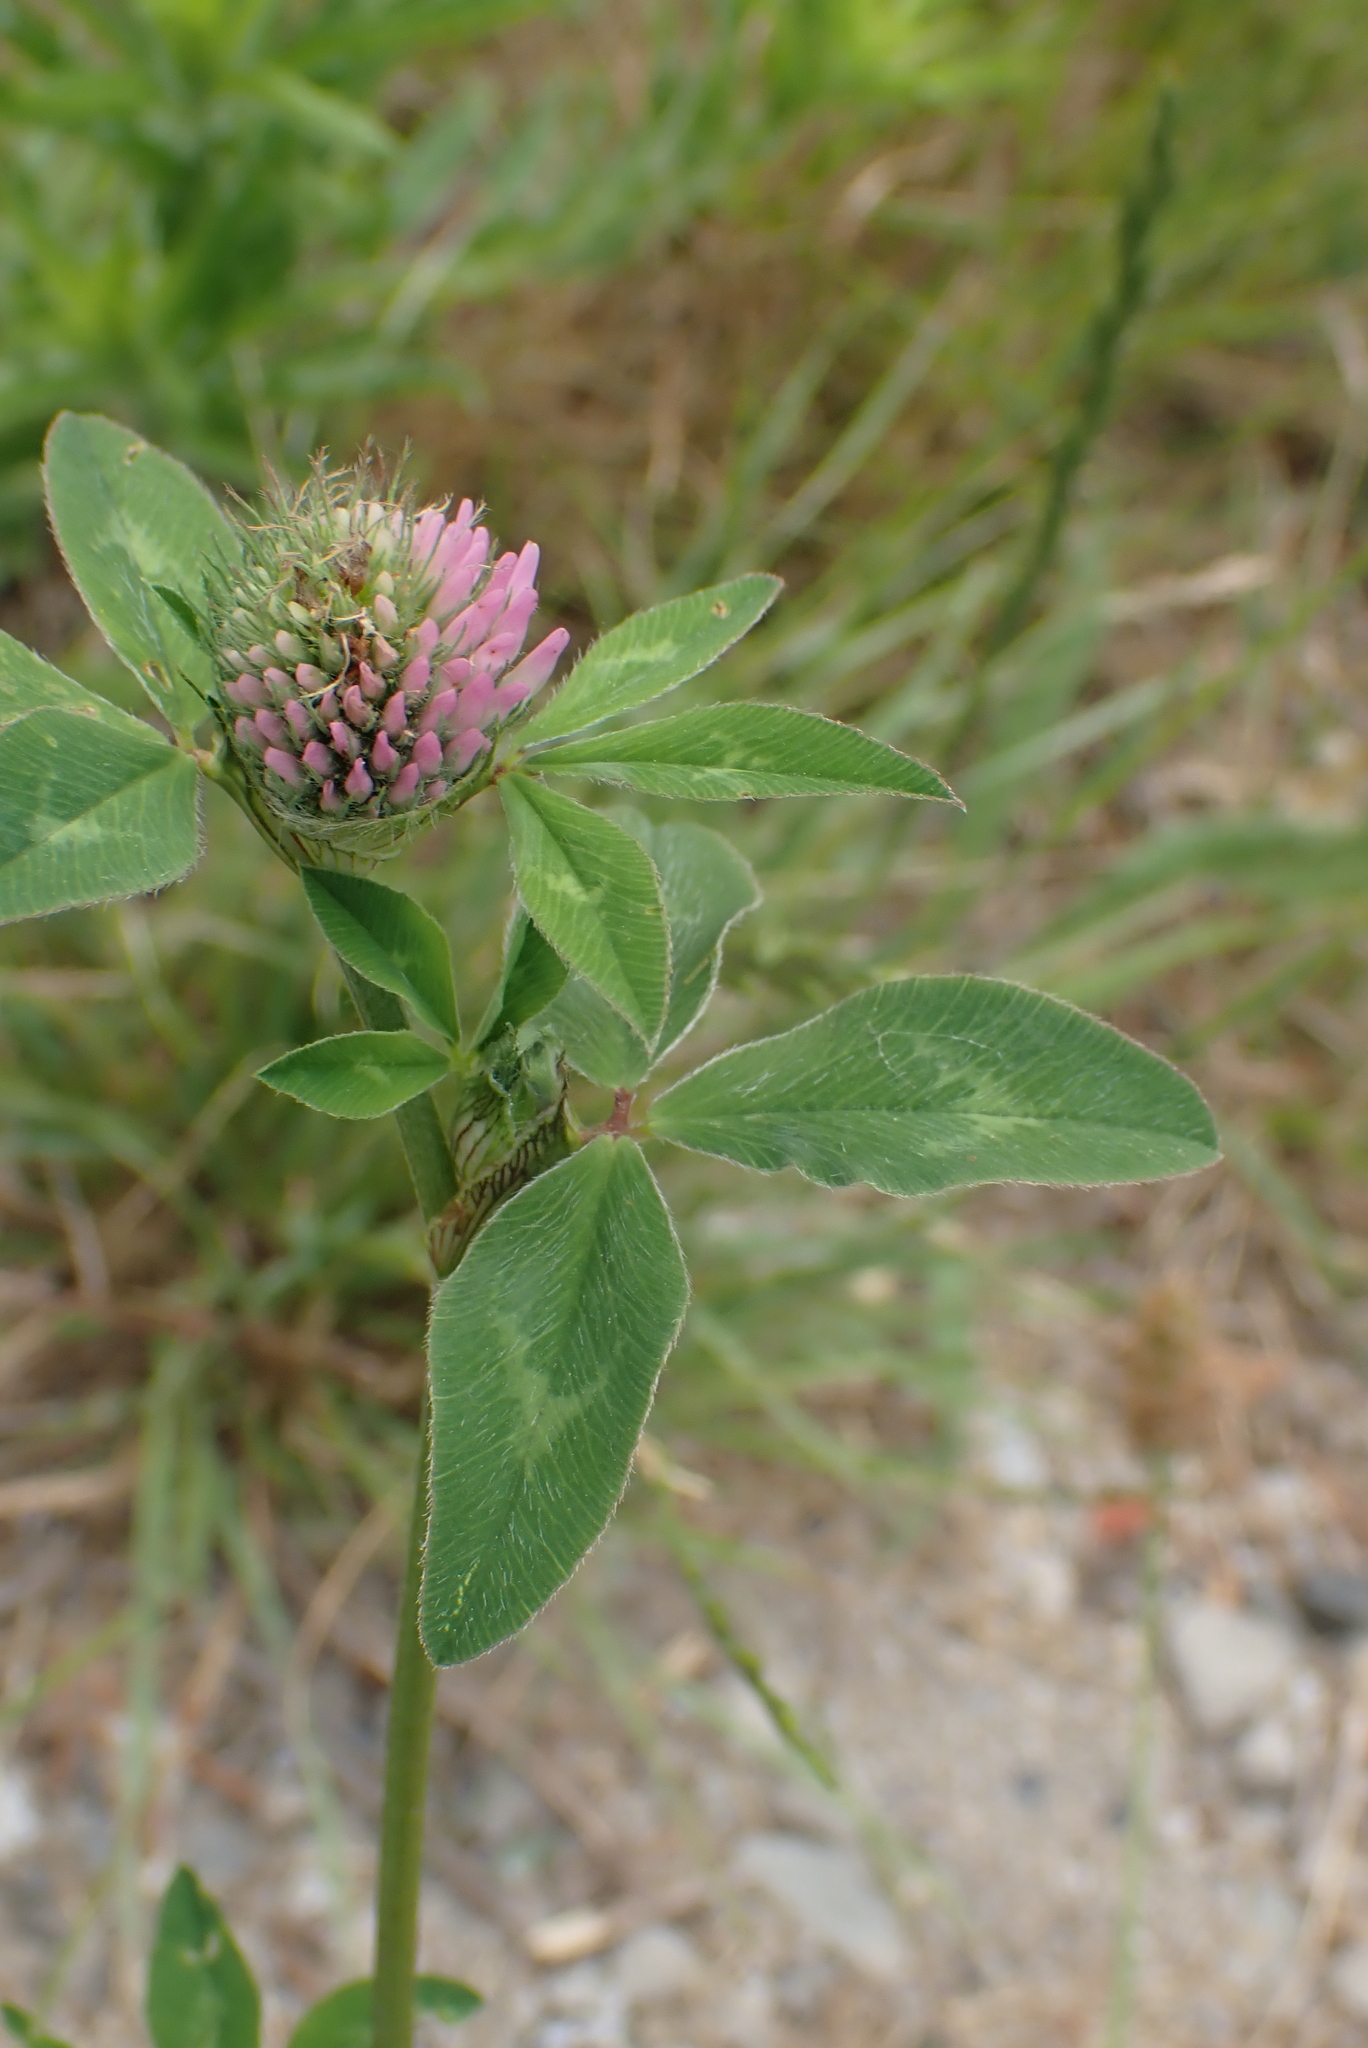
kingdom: Plantae
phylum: Tracheophyta
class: Magnoliopsida
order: Fabales
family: Fabaceae
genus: Trifolium
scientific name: Trifolium pratense
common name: Red clover
